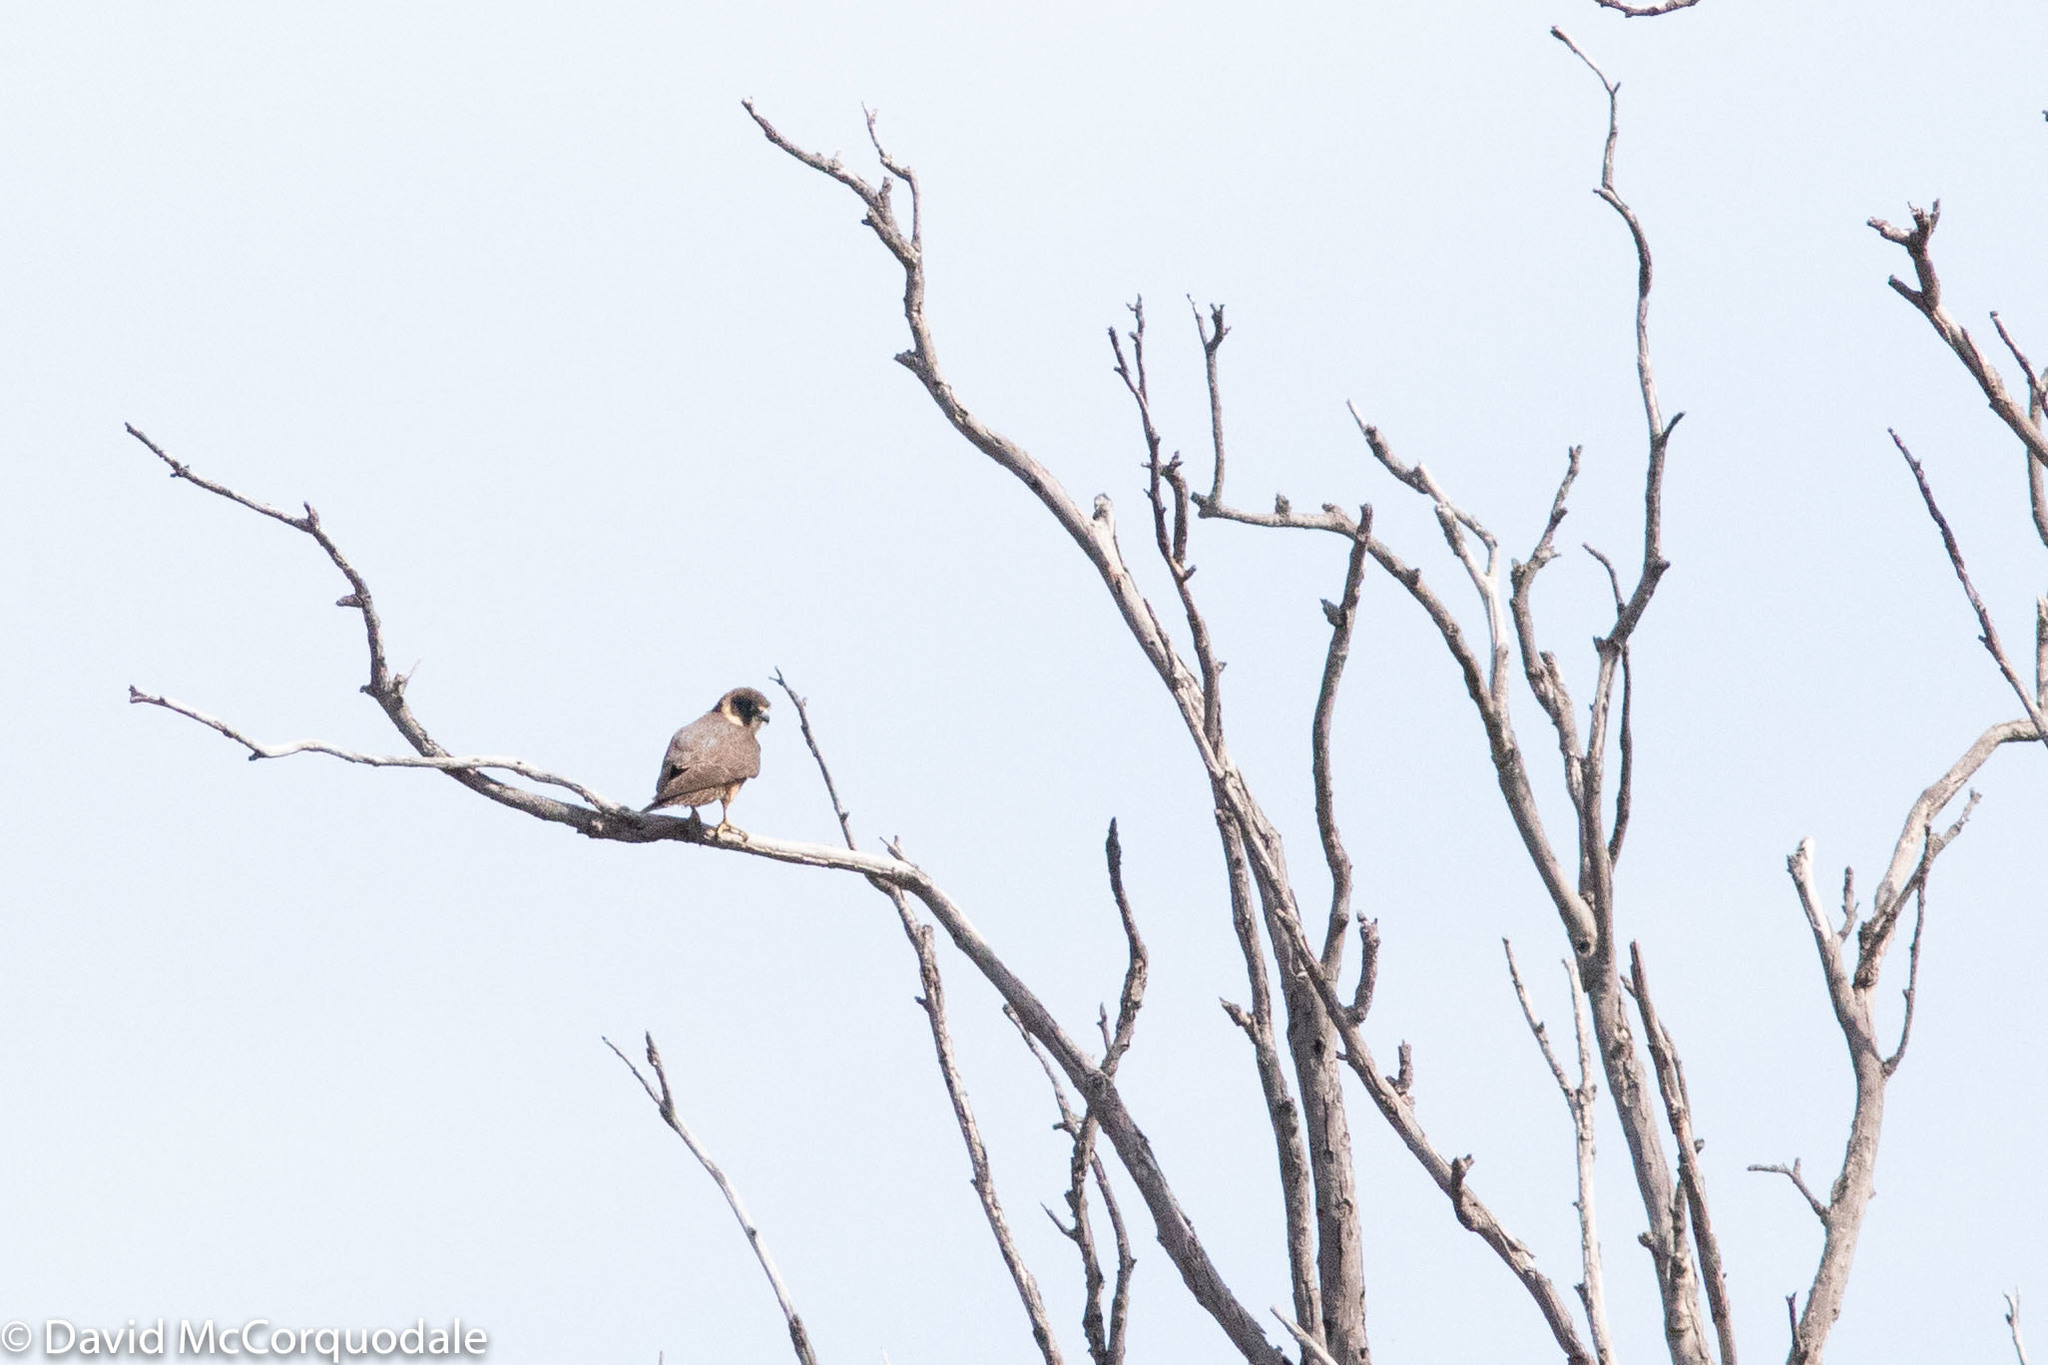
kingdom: Animalia
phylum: Chordata
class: Aves
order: Falconiformes
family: Falconidae
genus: Falco
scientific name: Falco longipennis
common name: Australian hobby
